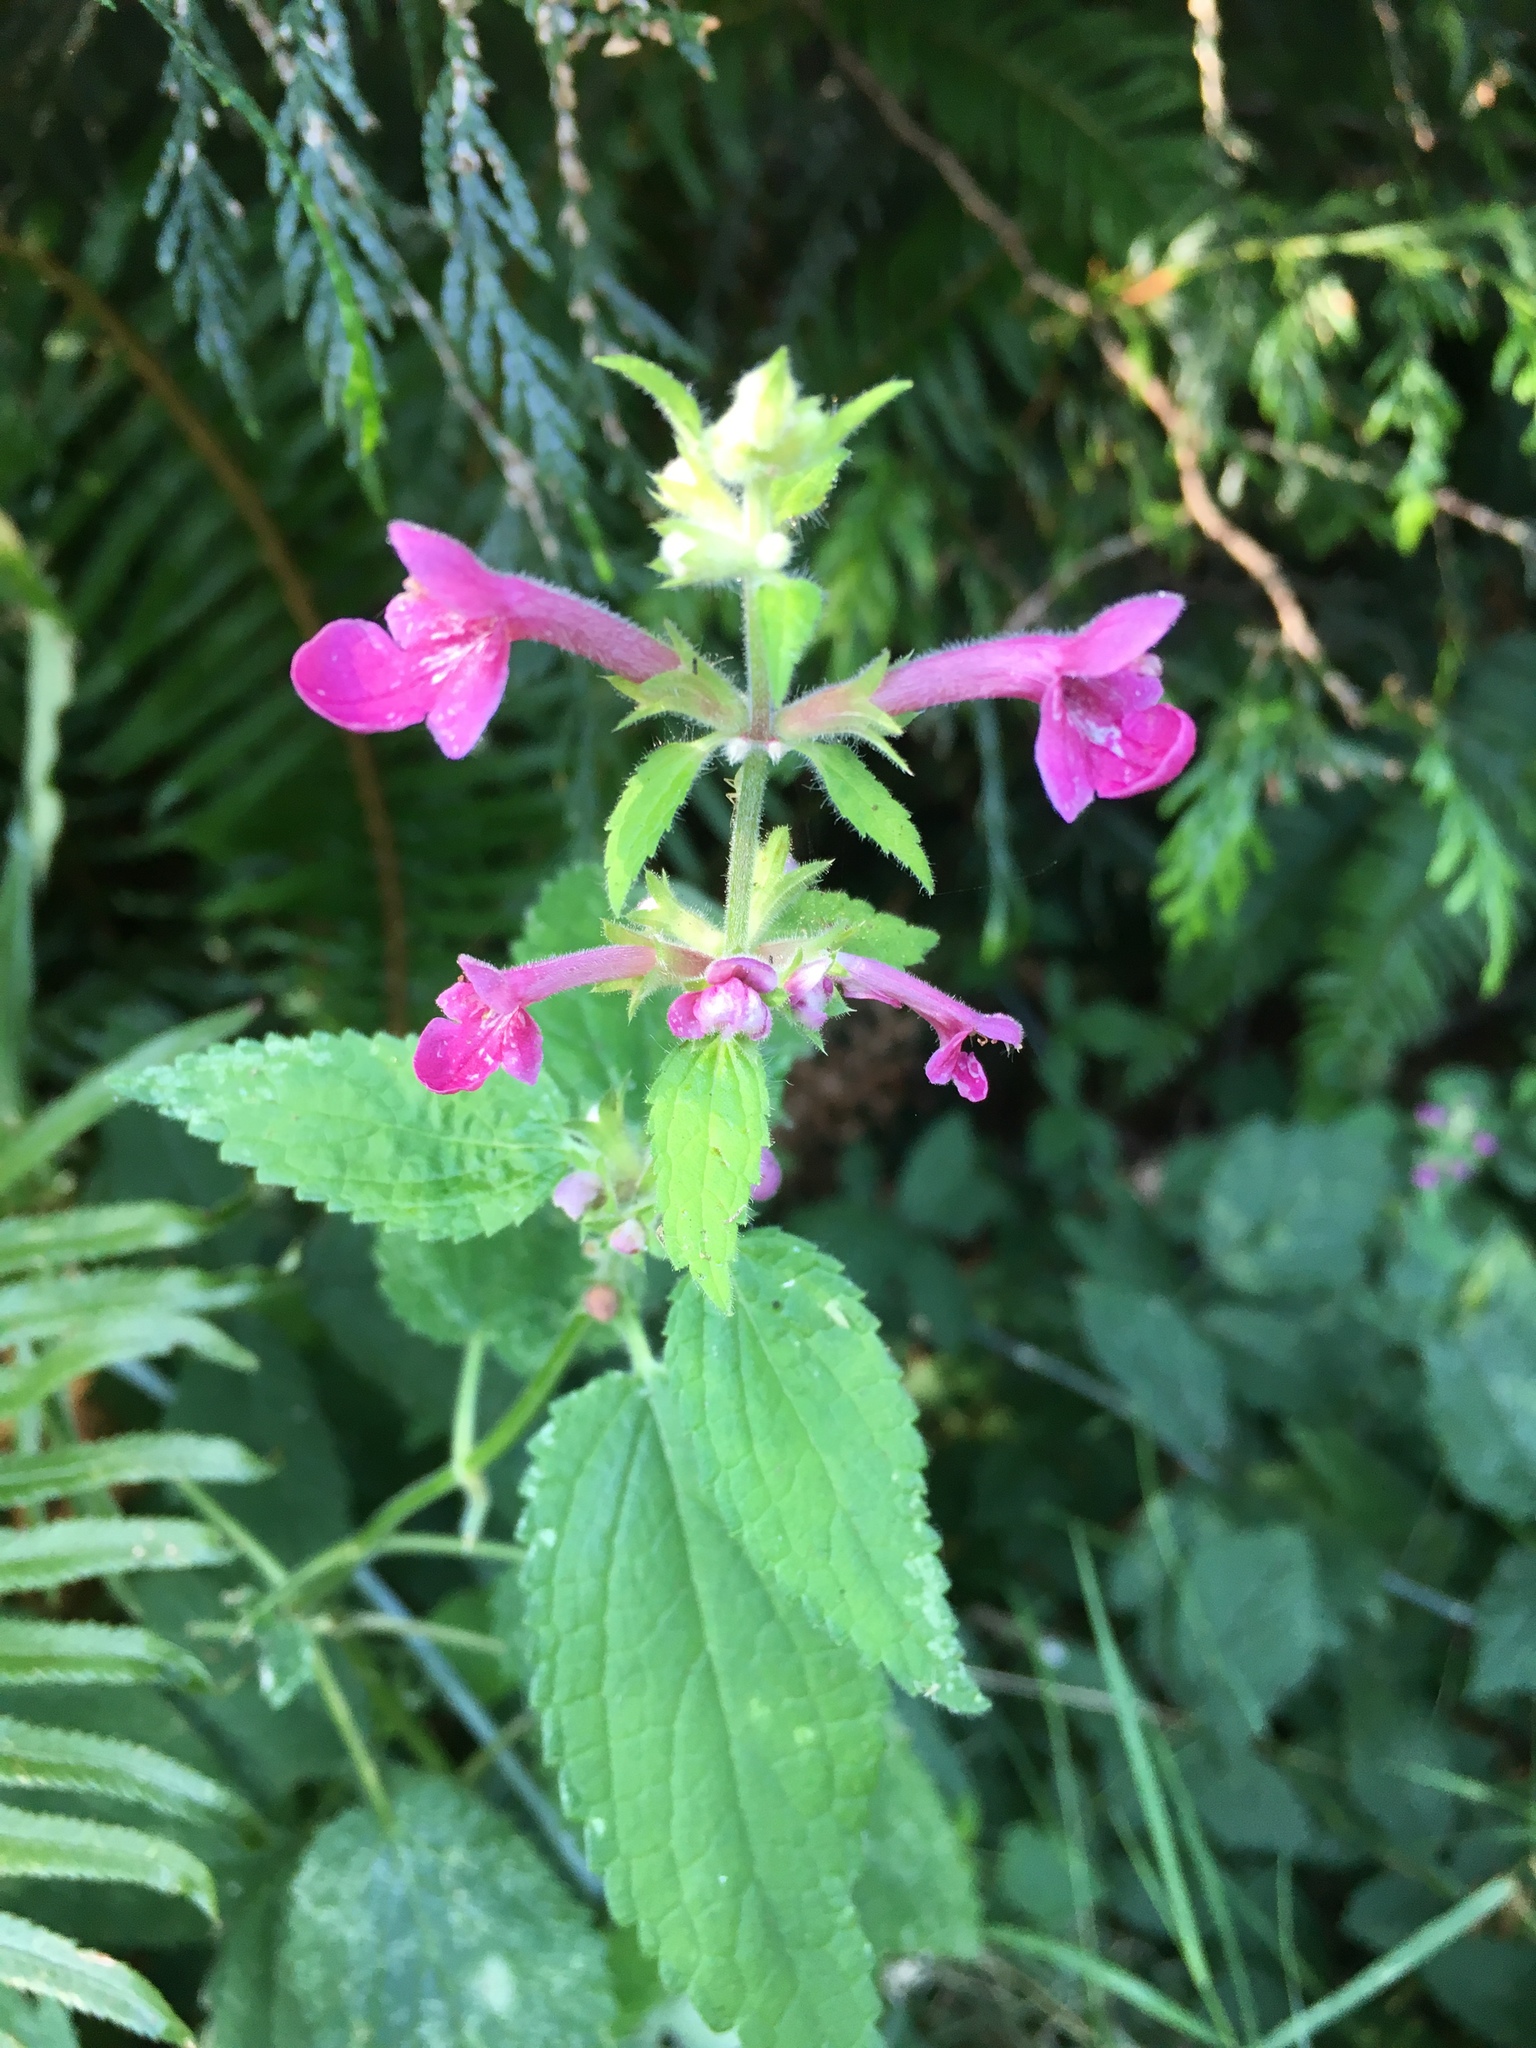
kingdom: Plantae
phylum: Tracheophyta
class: Magnoliopsida
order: Lamiales
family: Lamiaceae
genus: Stachys
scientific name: Stachys chamissonis
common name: Coastal hedge-nettle
